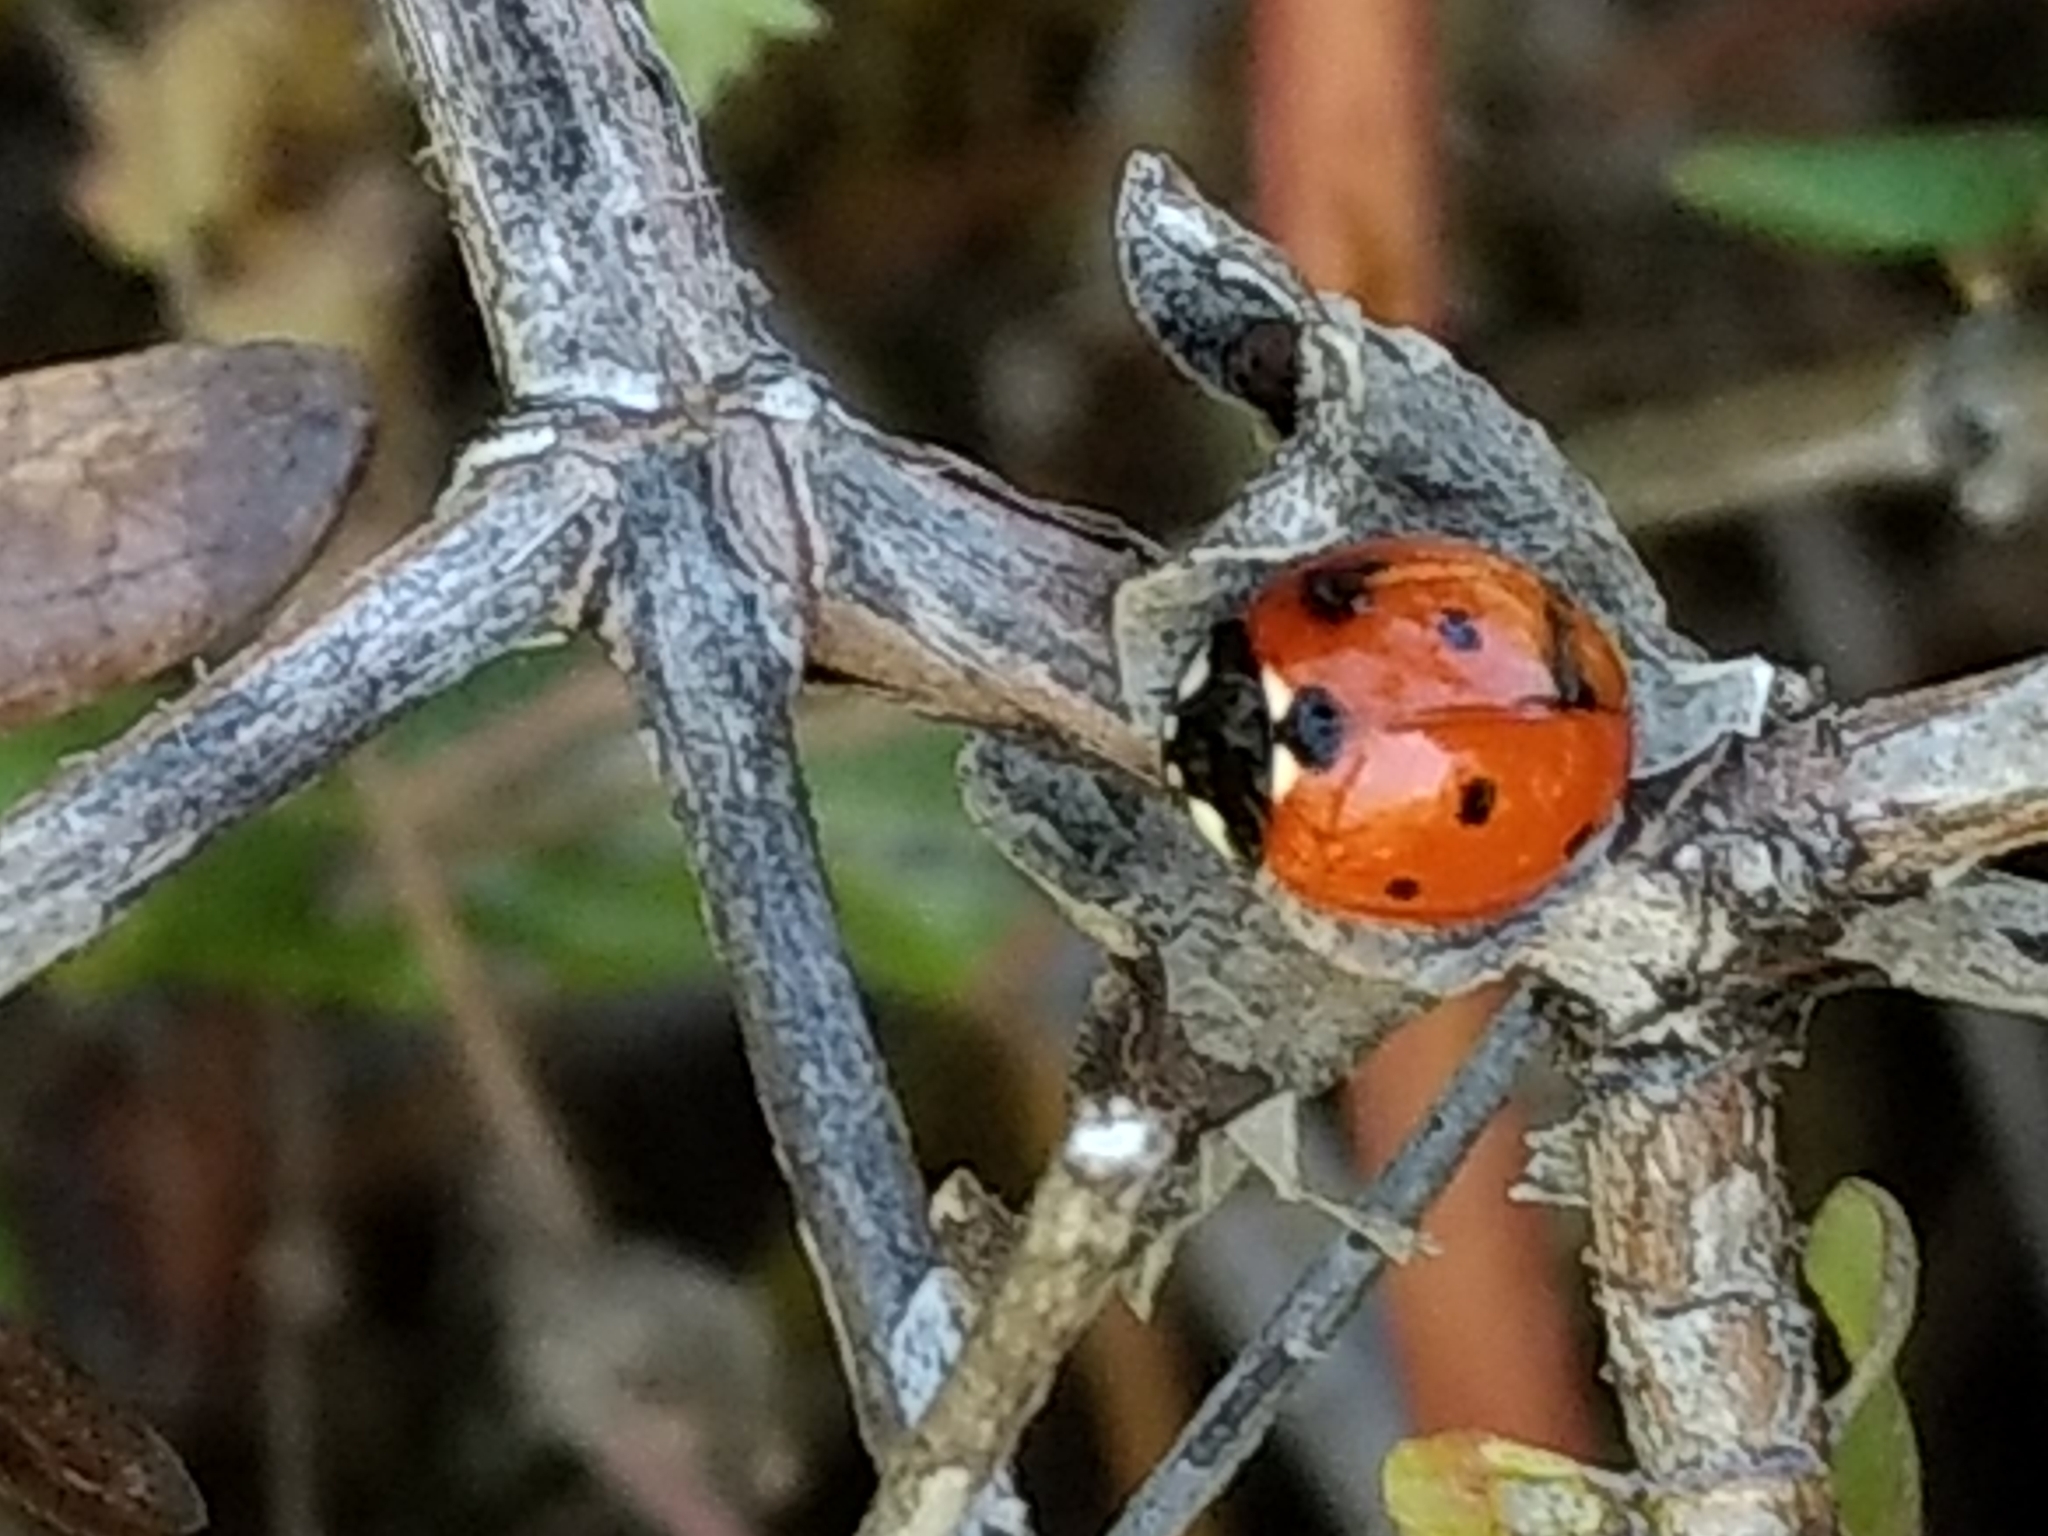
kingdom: Animalia
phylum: Arthropoda
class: Insecta
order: Coleoptera
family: Coccinellidae
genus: Coccinella
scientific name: Coccinella septempunctata
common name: Sevenspotted lady beetle
